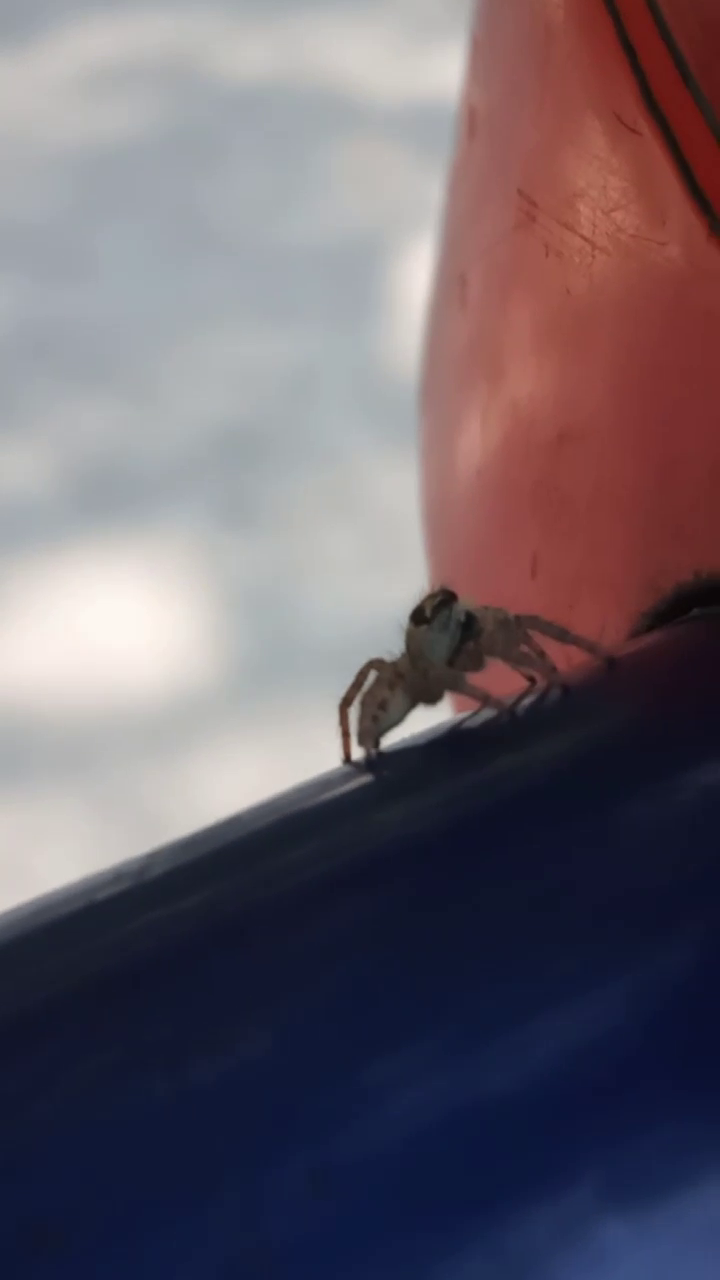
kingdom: Animalia
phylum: Arthropoda
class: Arachnida
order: Araneae
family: Salticidae
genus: Philaeus
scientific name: Philaeus chrysops
